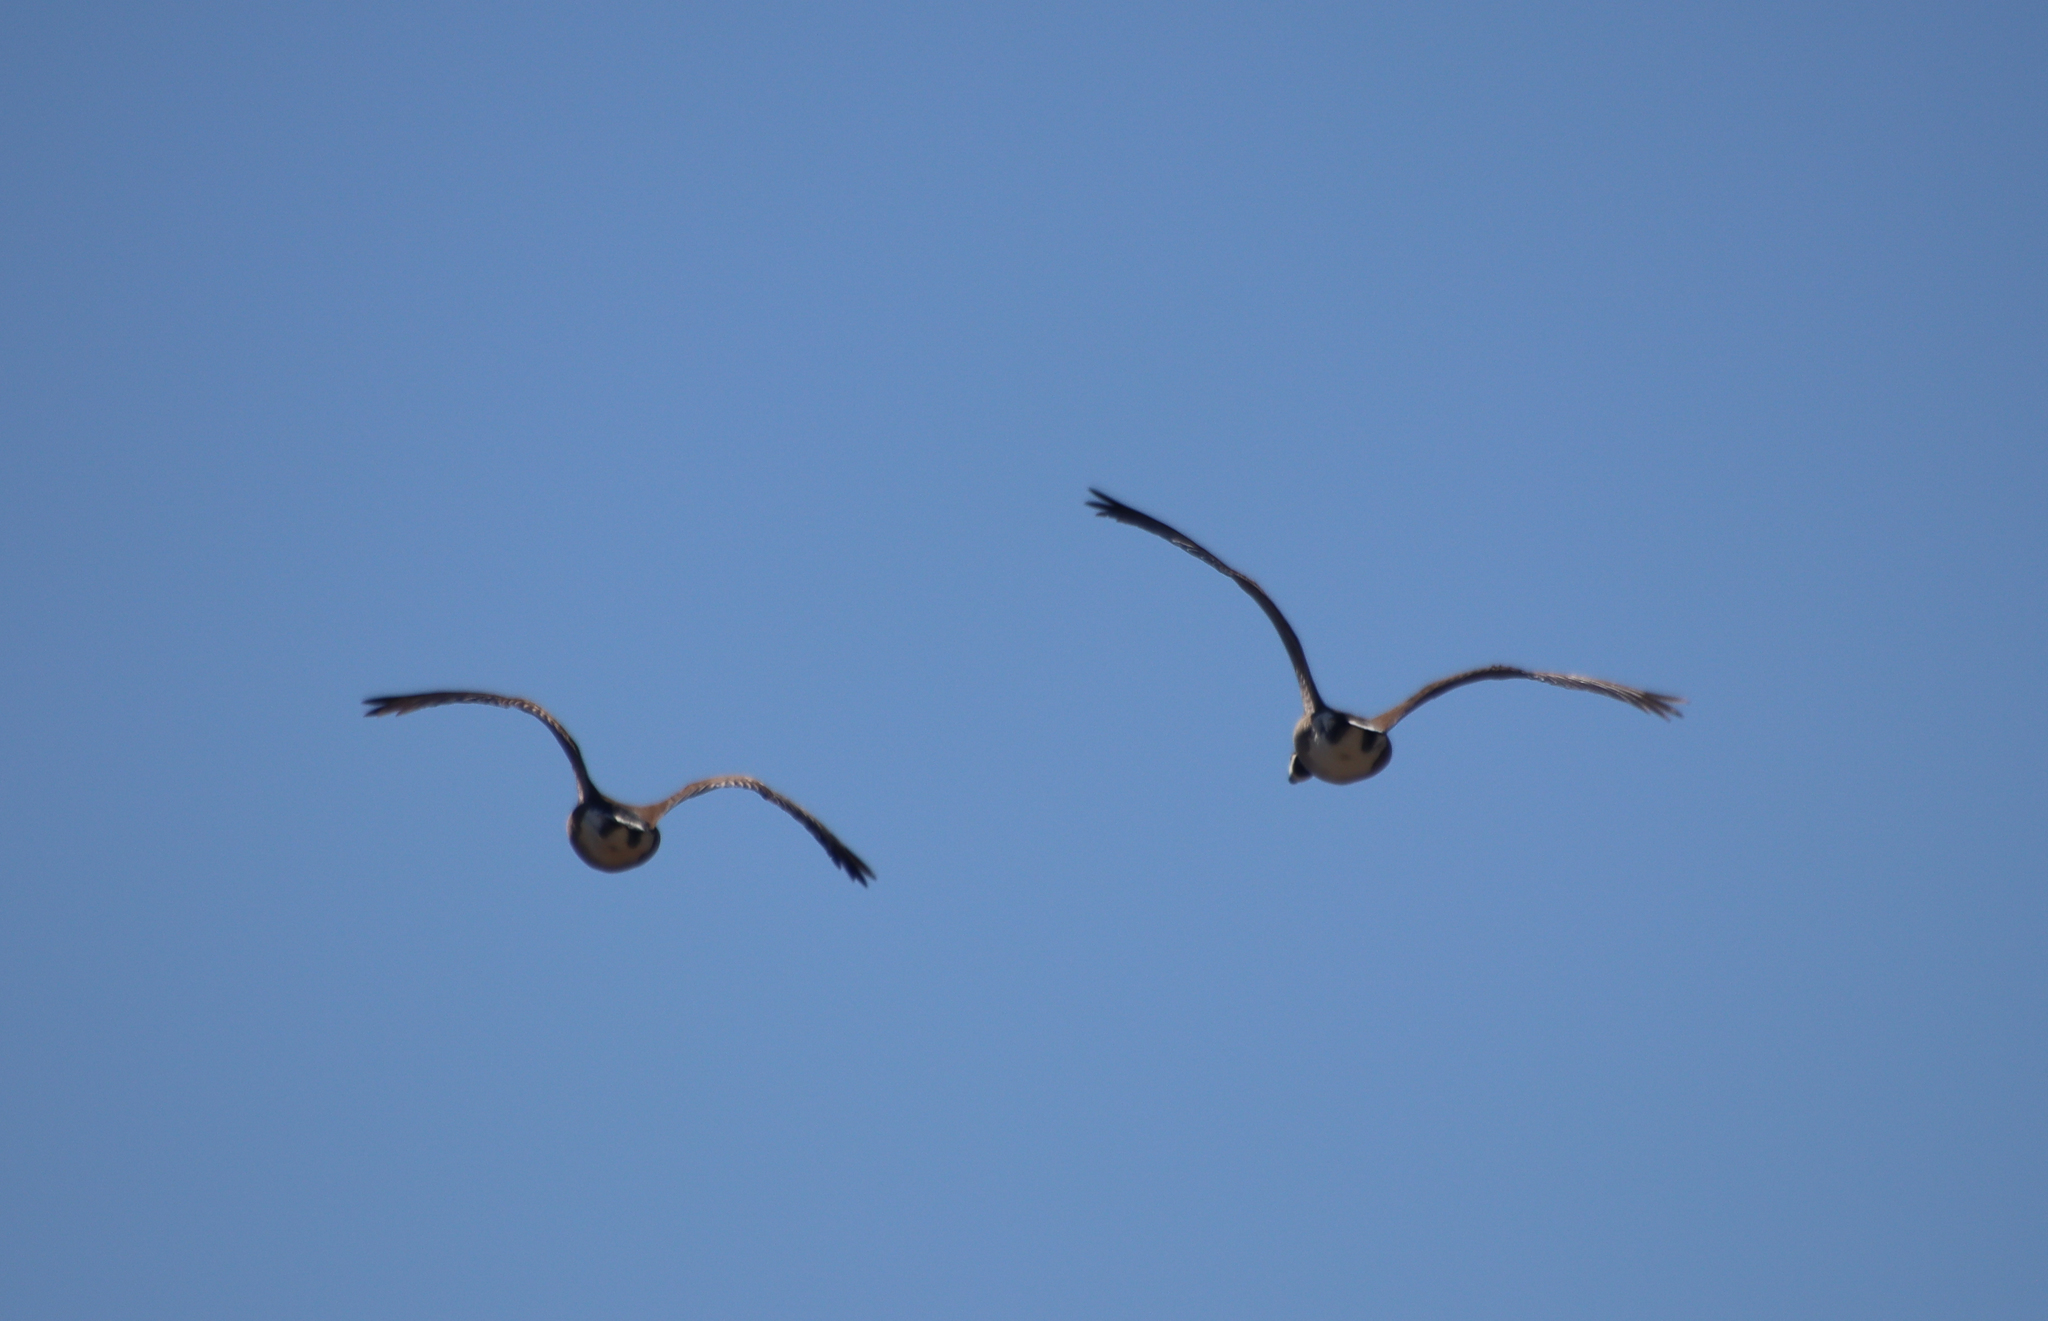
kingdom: Animalia
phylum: Chordata
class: Aves
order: Anseriformes
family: Anatidae
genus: Branta
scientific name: Branta canadensis
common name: Canada goose
